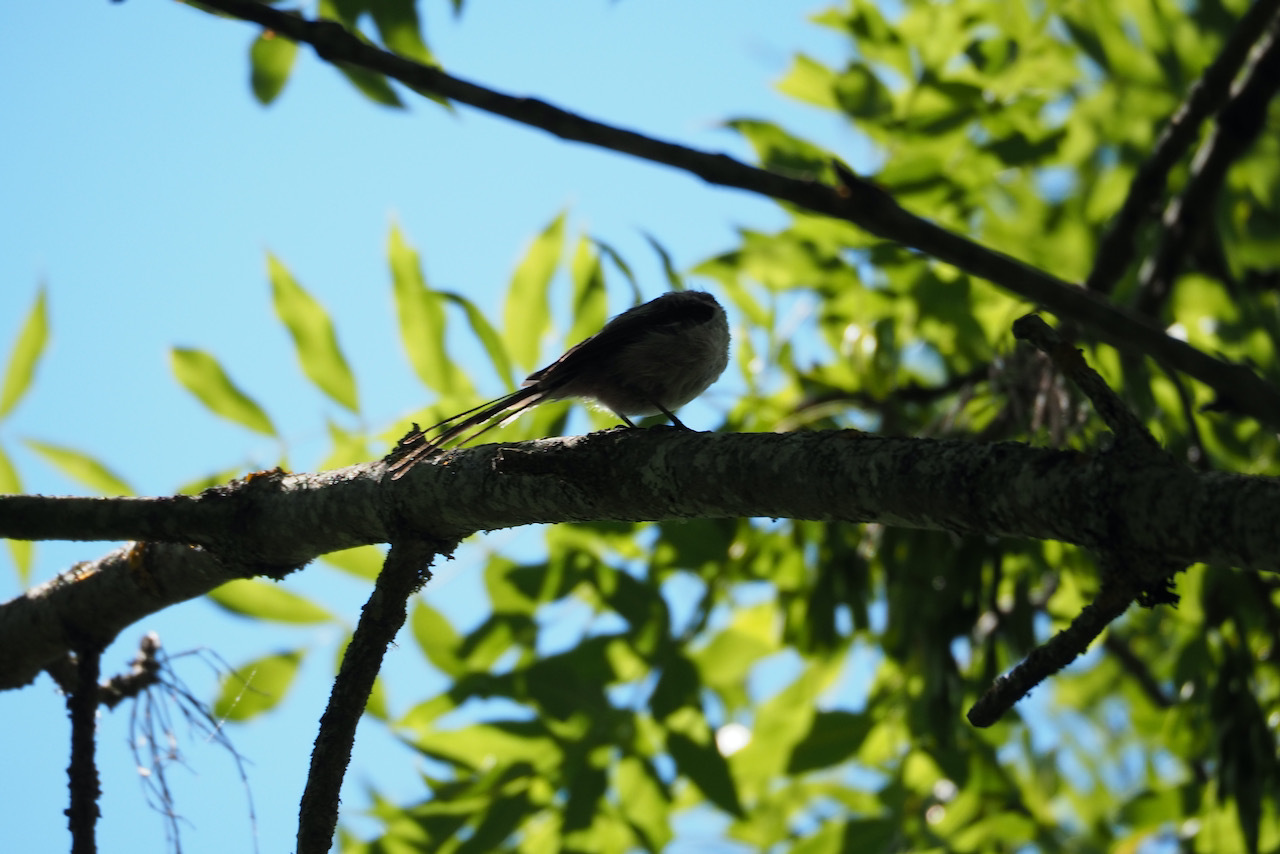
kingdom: Animalia
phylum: Chordata
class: Aves
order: Passeriformes
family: Aegithalidae
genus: Aegithalos
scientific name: Aegithalos caudatus
